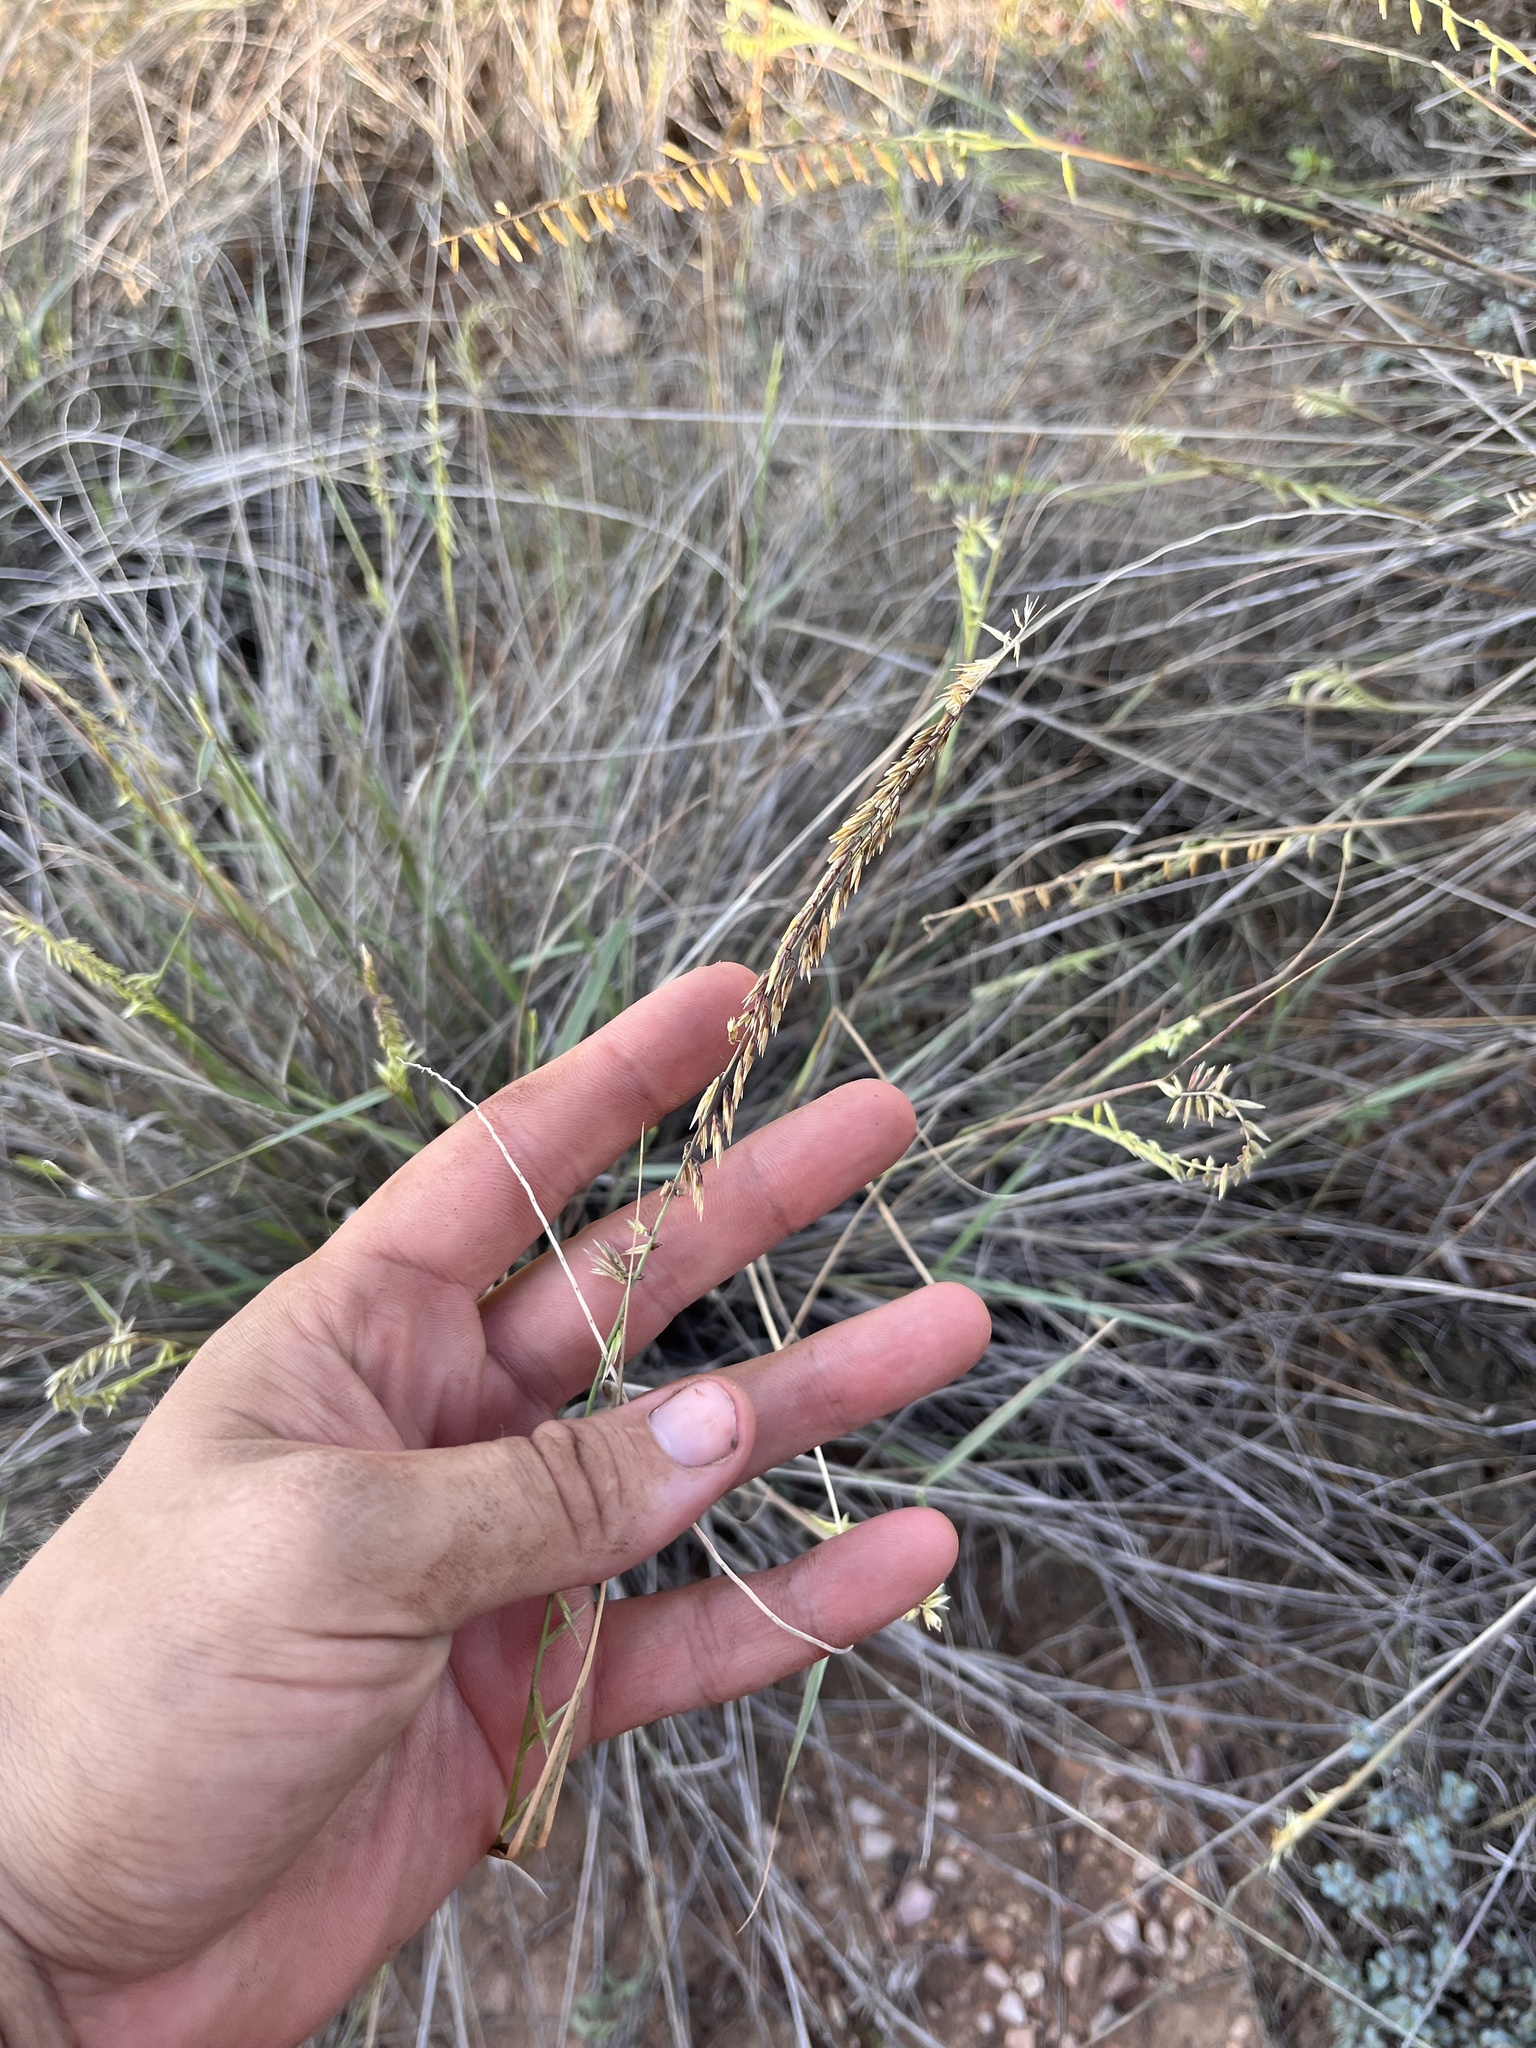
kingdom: Plantae
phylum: Tracheophyta
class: Liliopsida
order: Poales
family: Poaceae
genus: Bouteloua
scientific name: Bouteloua curtipendula
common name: Side-oats grama
